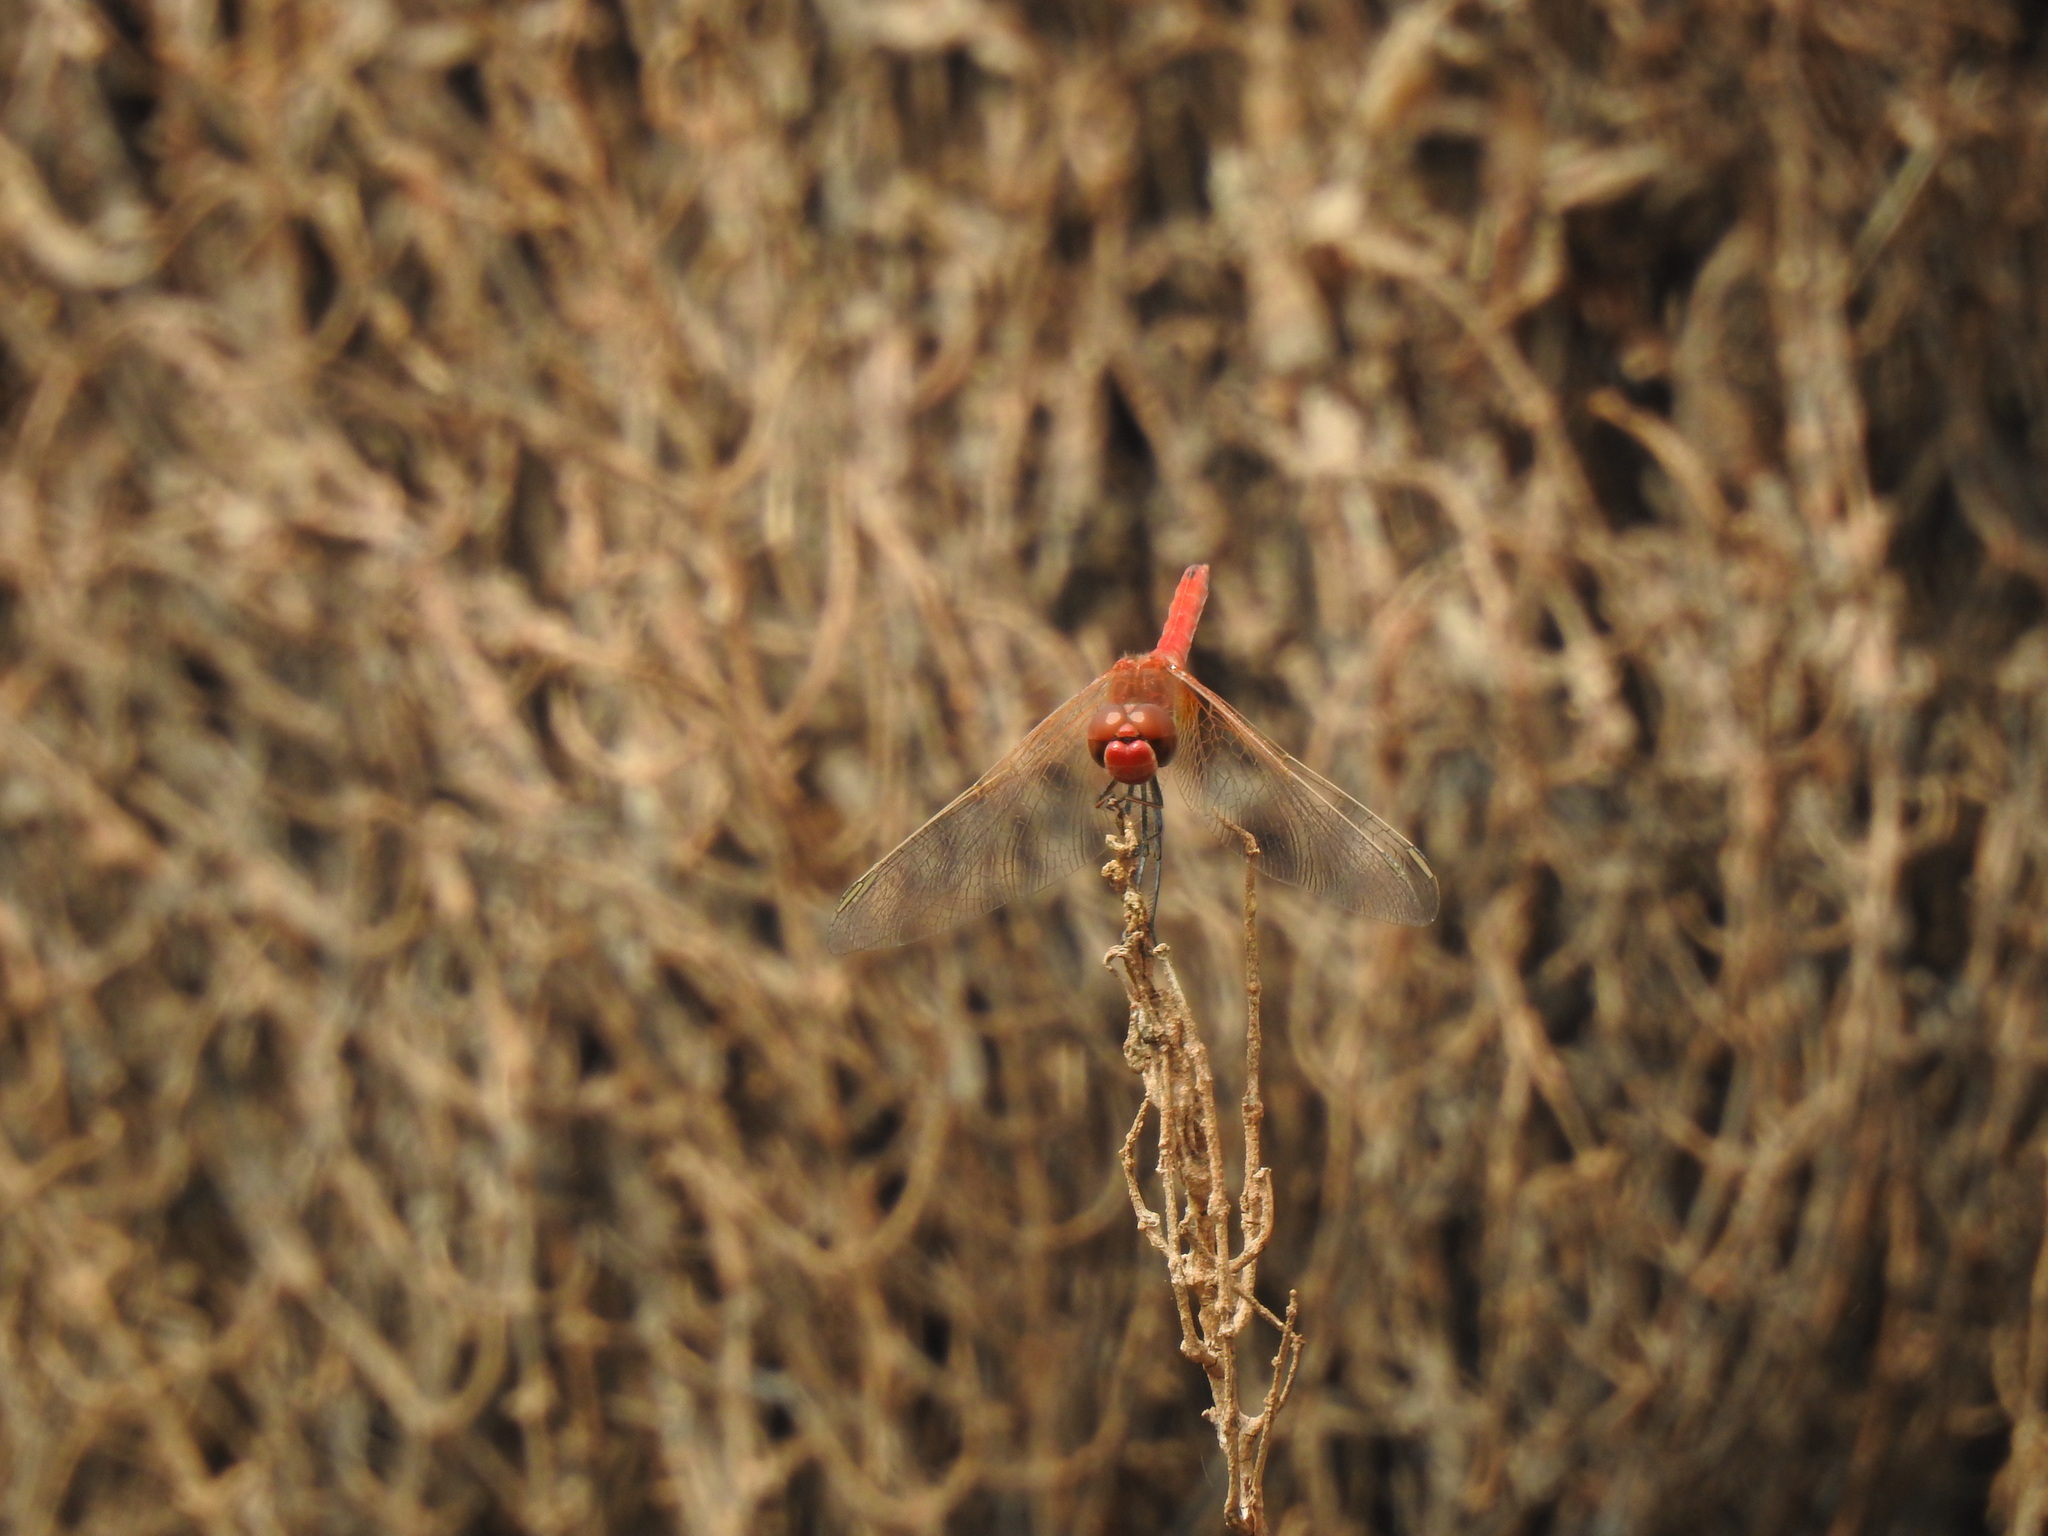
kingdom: Animalia
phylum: Arthropoda
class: Insecta
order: Odonata
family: Libellulidae
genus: Sympetrum
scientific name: Sympetrum fonscolombii
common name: Red-veined darter
